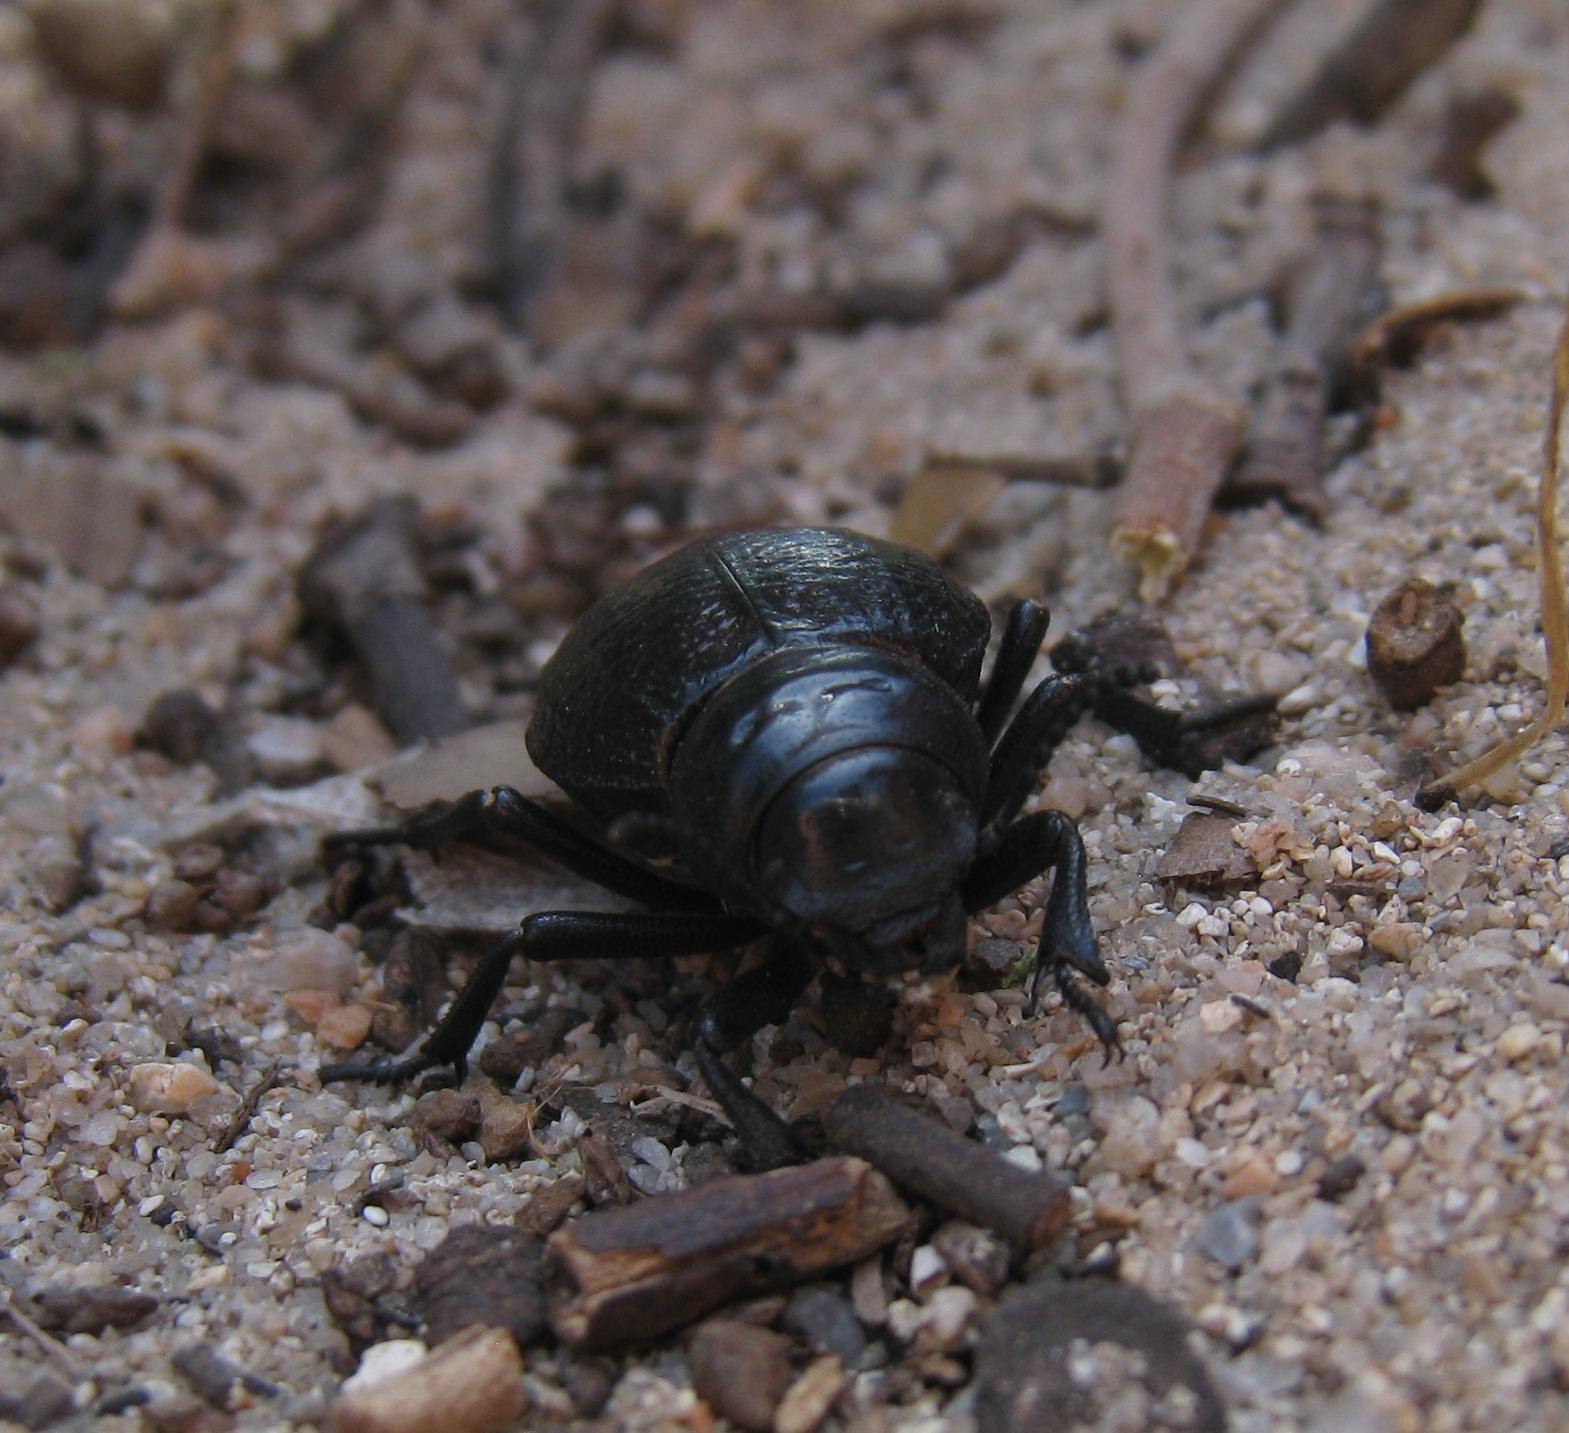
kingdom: Animalia
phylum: Arthropoda
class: Insecta
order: Coleoptera
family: Tenebrionidae
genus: Pimelia
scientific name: Pimelia angusticollis
